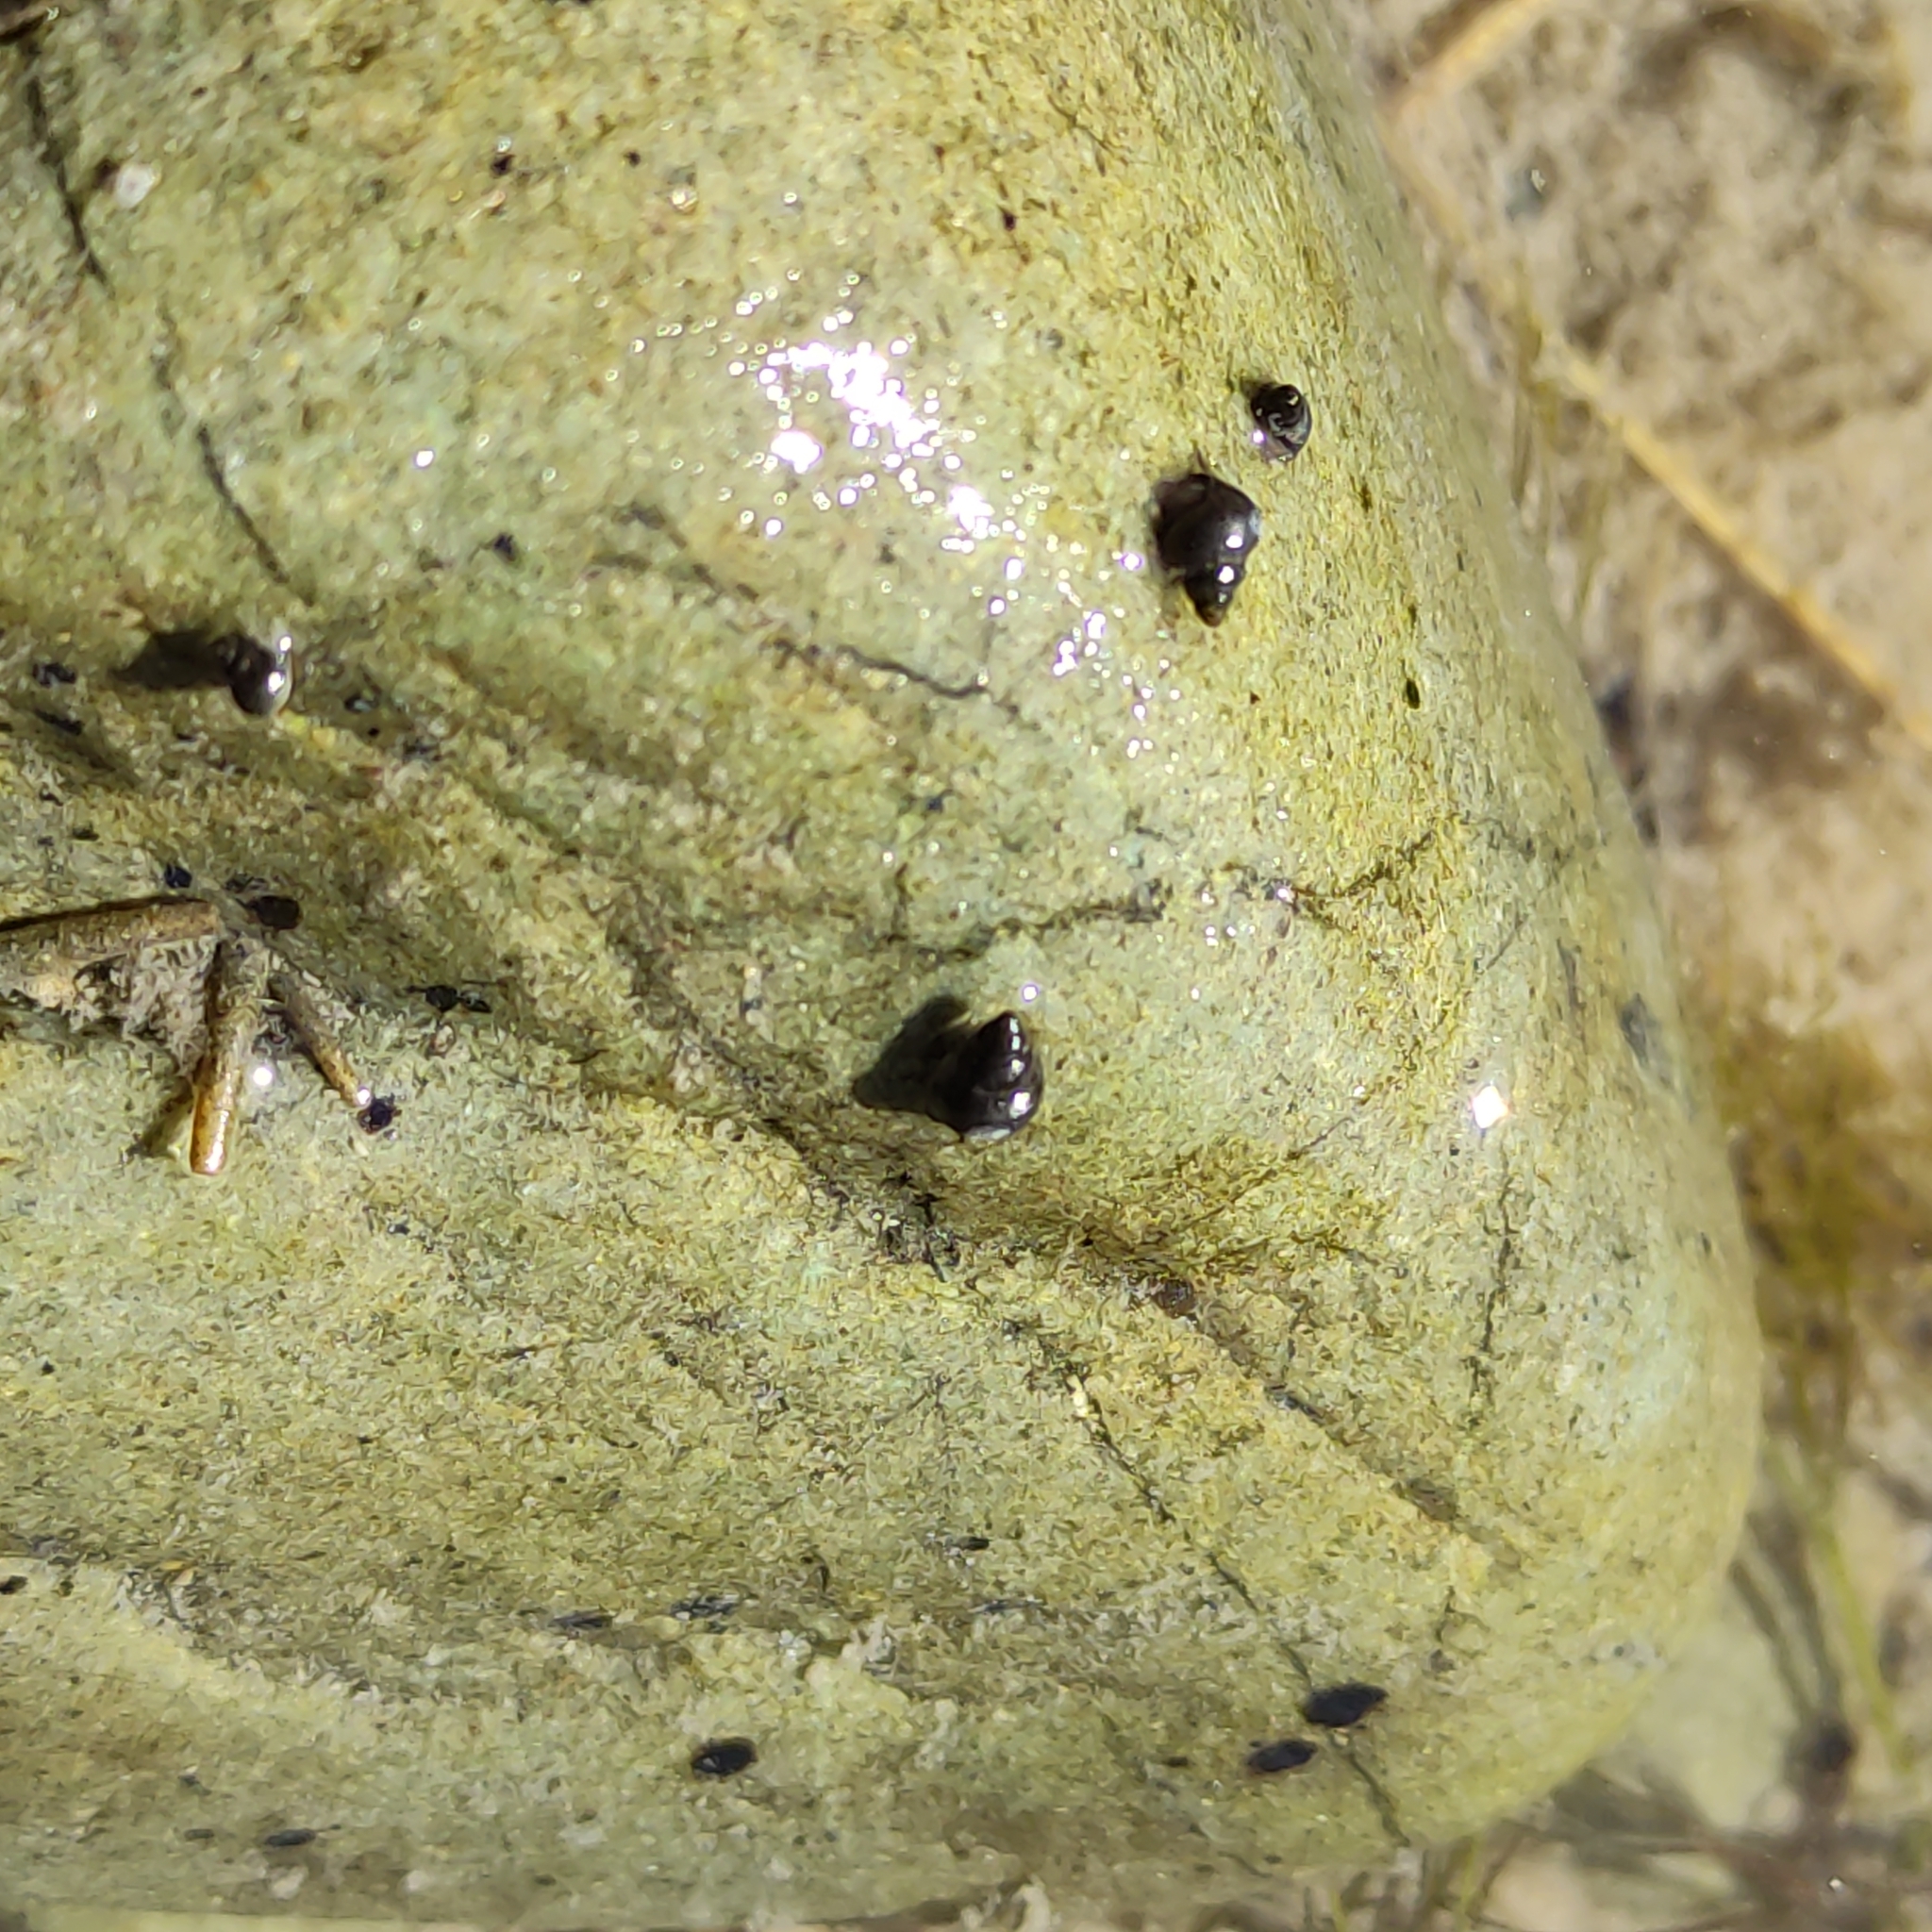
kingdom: Animalia
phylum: Mollusca
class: Gastropoda
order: Littorinimorpha
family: Tateidae
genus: Potamopyrgus
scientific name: Potamopyrgus antipodarum
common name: Jenkins' spire snail
